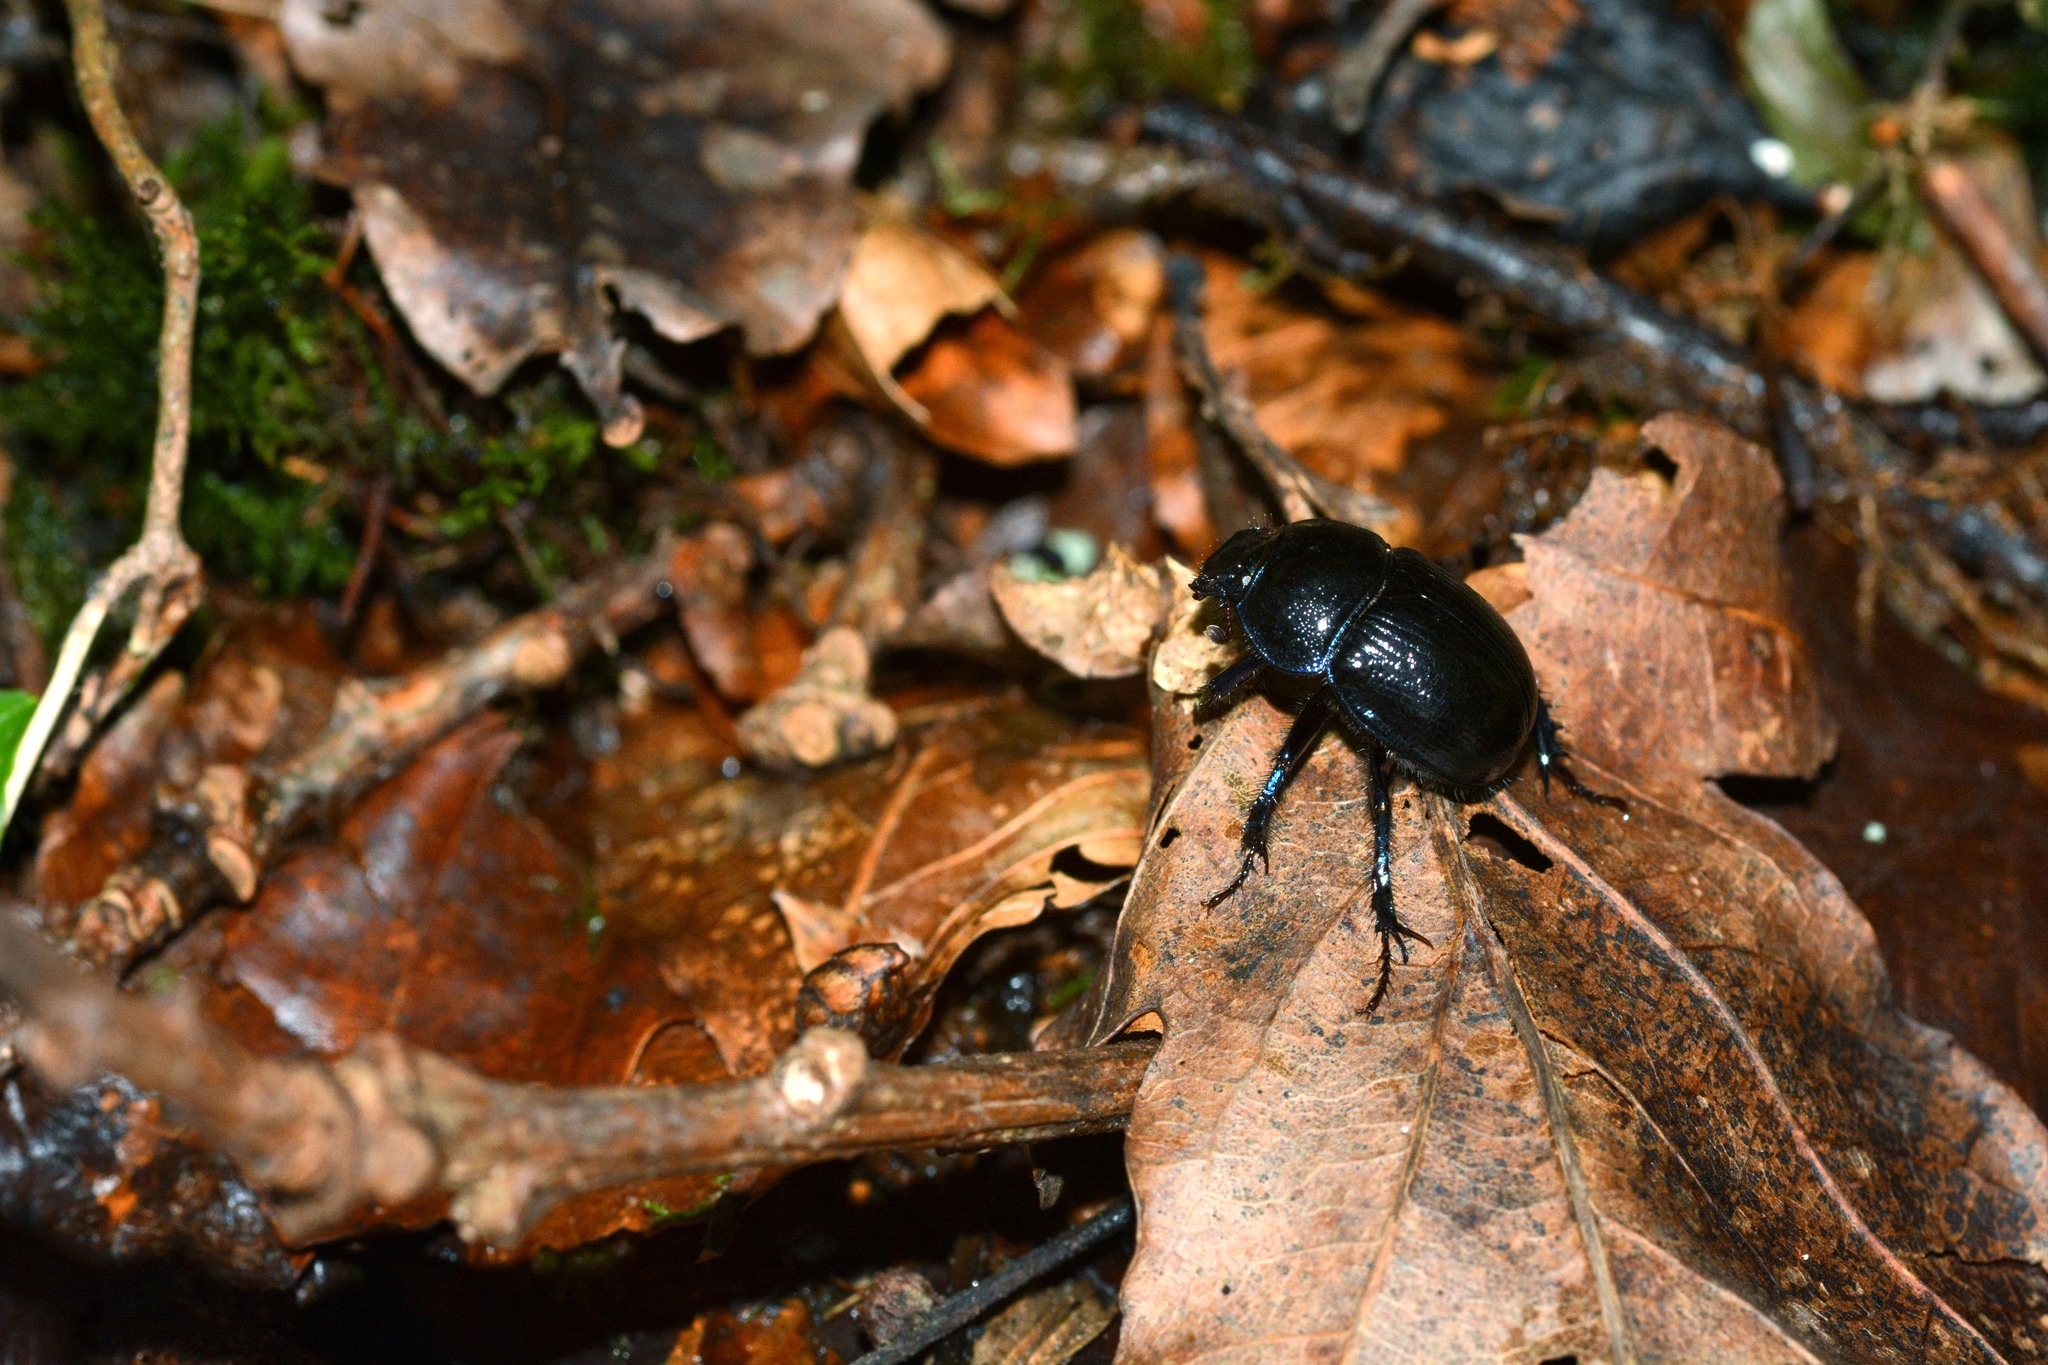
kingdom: Animalia
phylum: Arthropoda
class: Insecta
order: Coleoptera
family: Geotrupidae
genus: Anoplotrupes
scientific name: Anoplotrupes stercorosus
